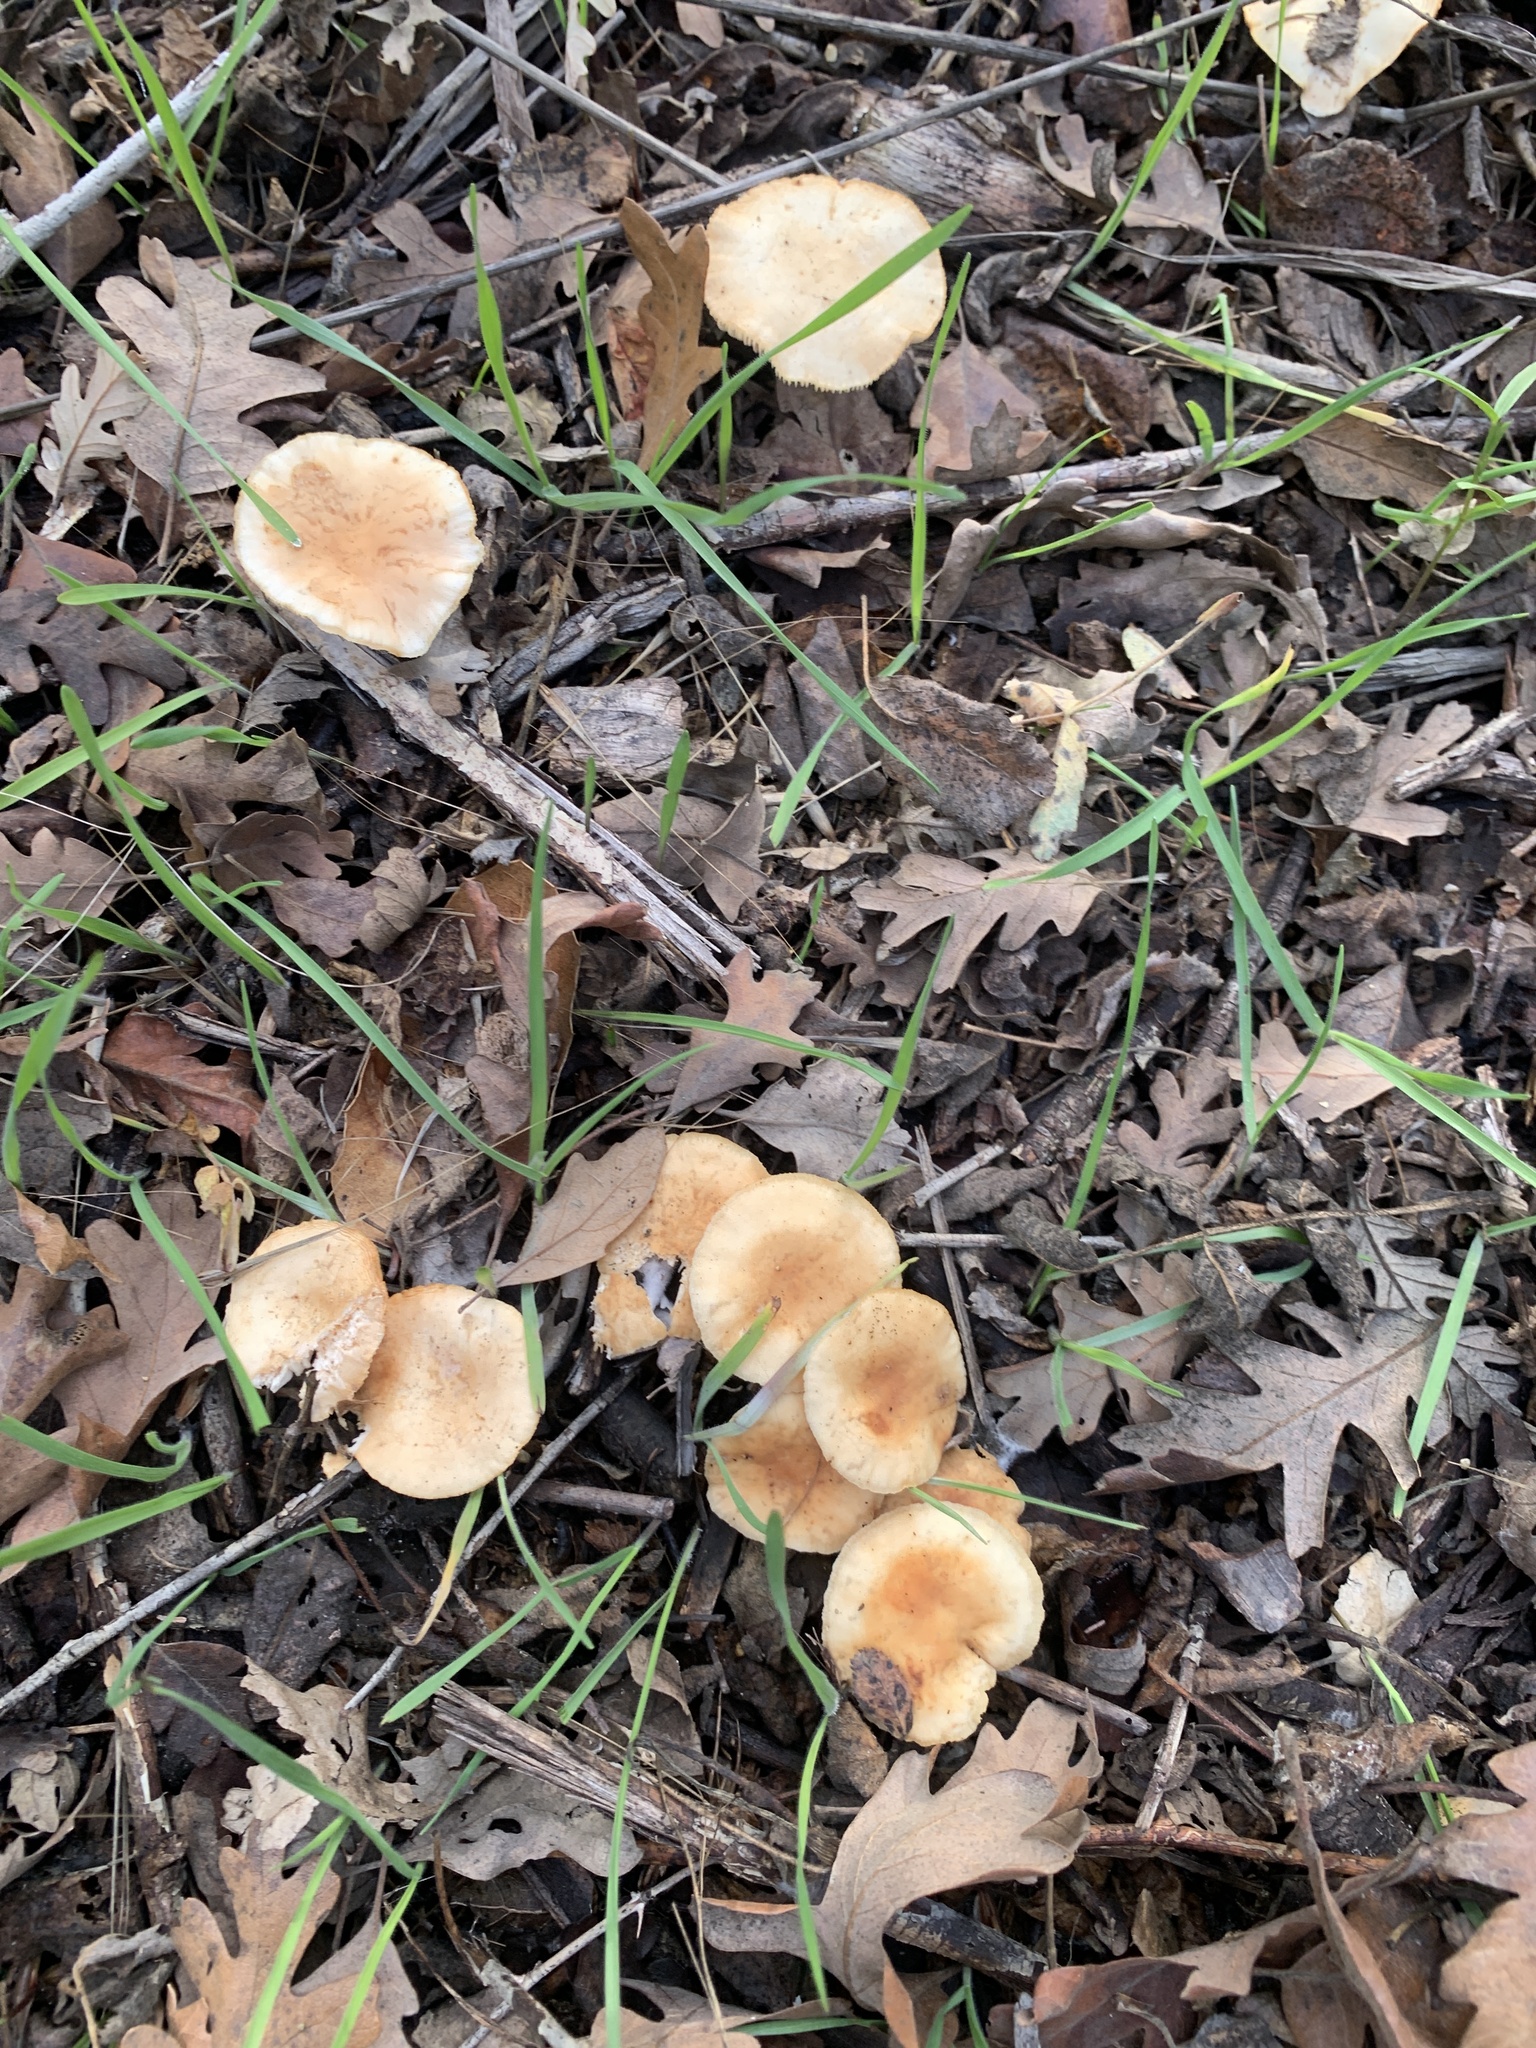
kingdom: Fungi
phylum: Basidiomycota
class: Agaricomycetes
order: Agaricales
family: Omphalotaceae
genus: Gymnopus
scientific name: Gymnopus dryophilus
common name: Penny top
